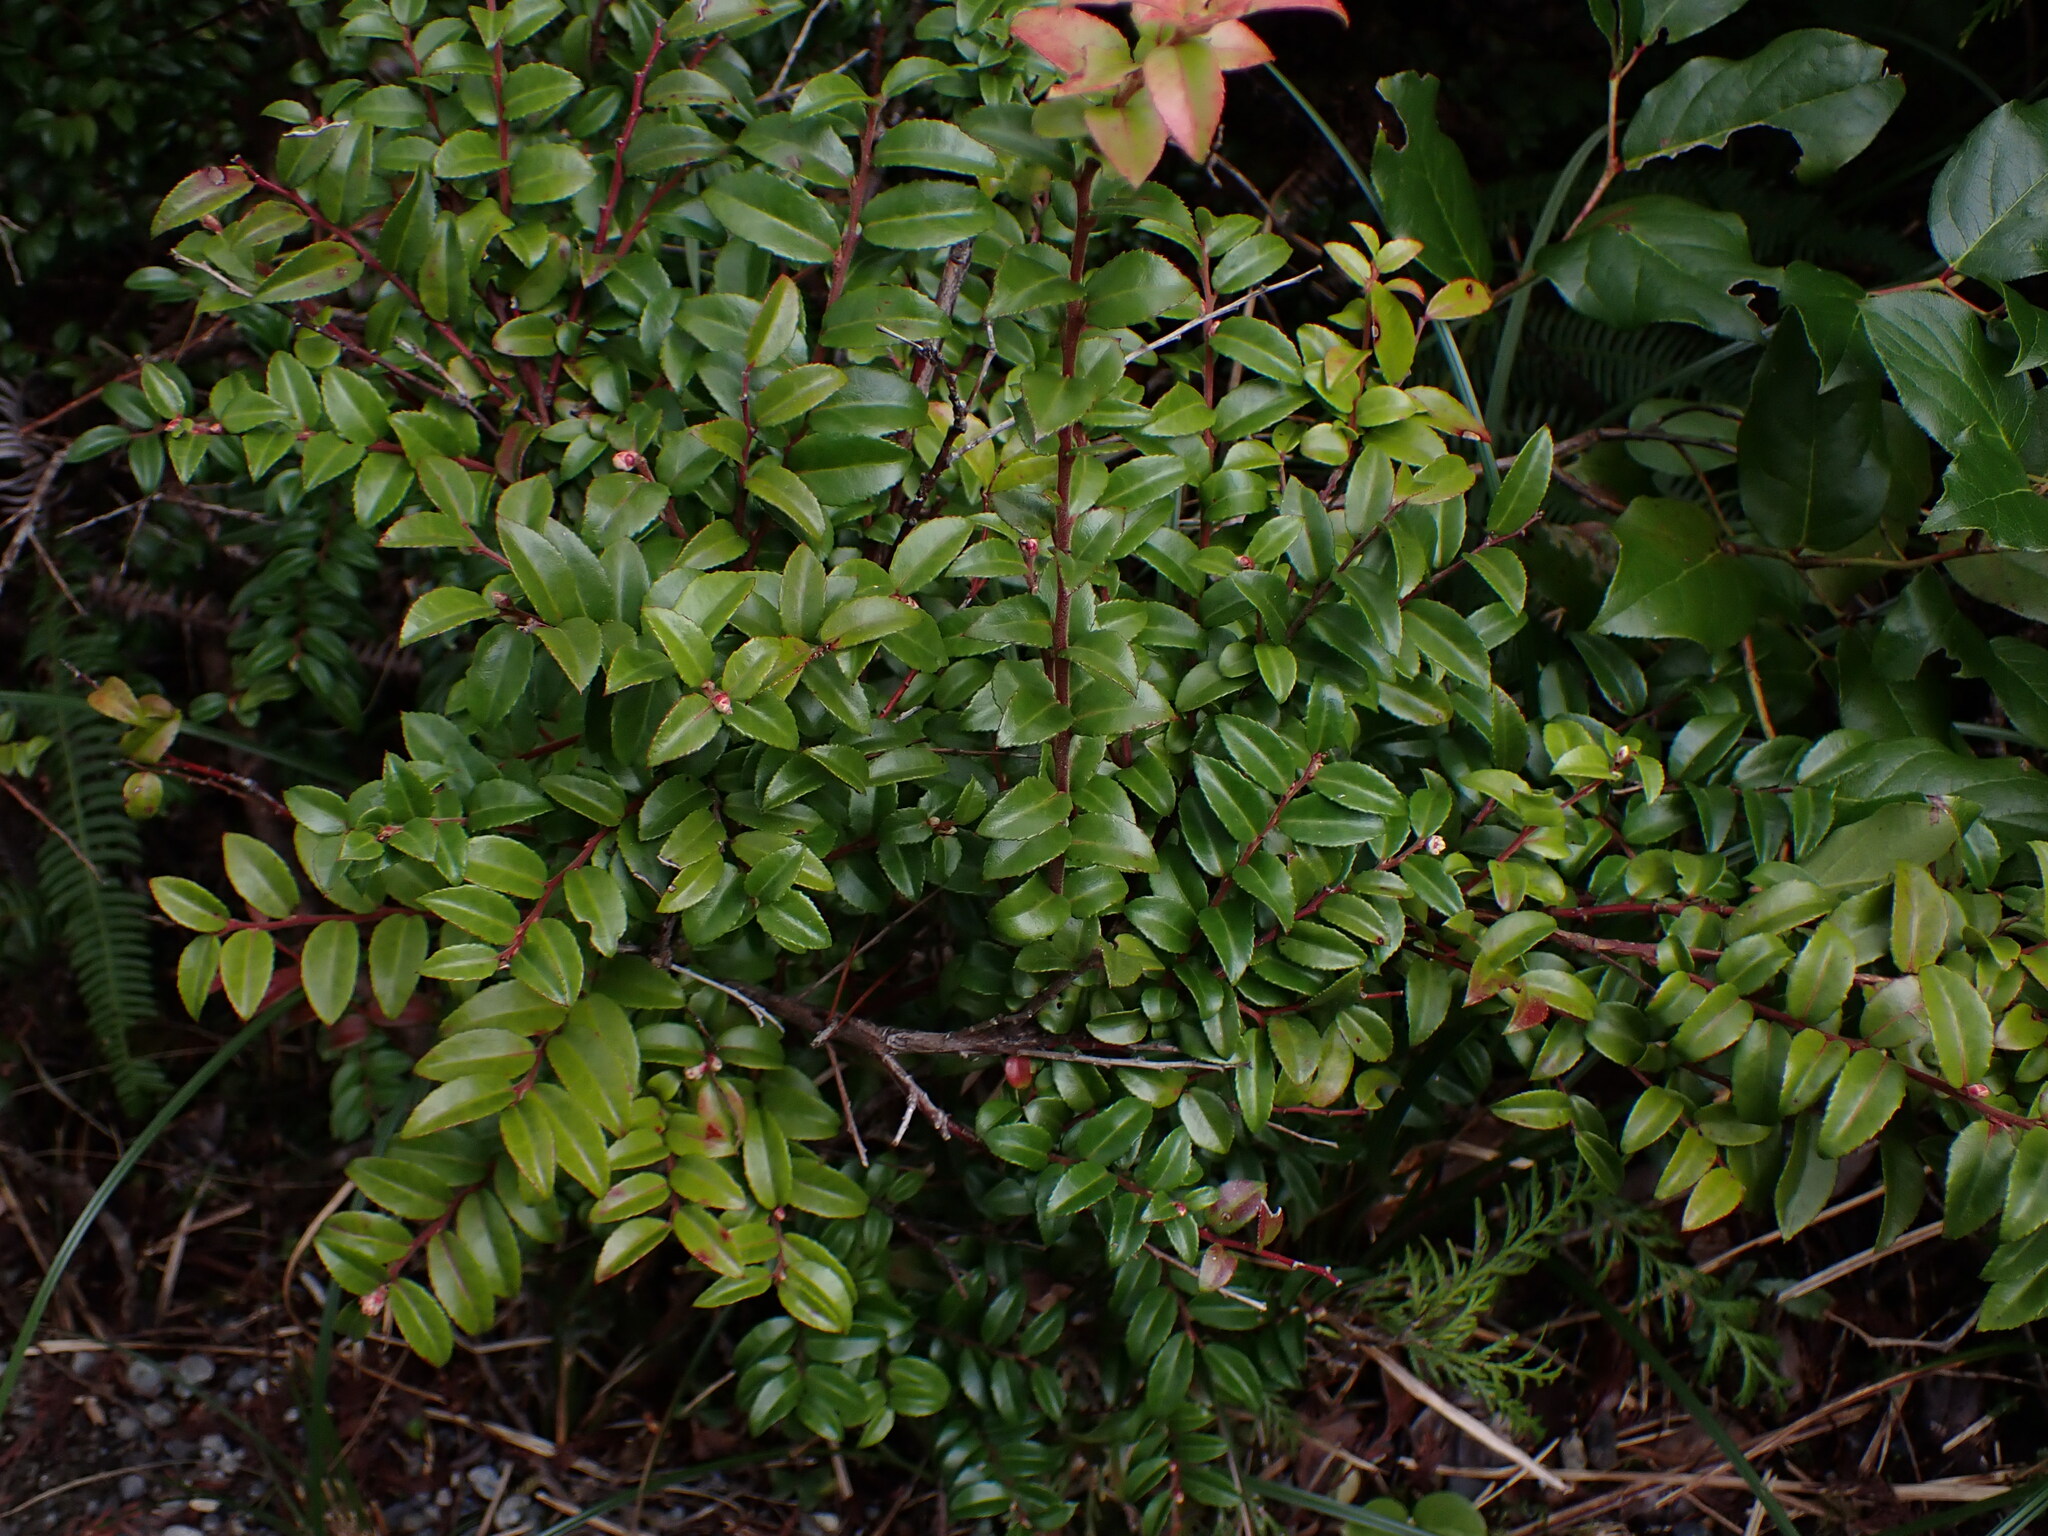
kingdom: Plantae
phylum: Tracheophyta
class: Magnoliopsida
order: Ericales
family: Ericaceae
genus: Vaccinium
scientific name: Vaccinium ovatum
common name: California-huckleberry
